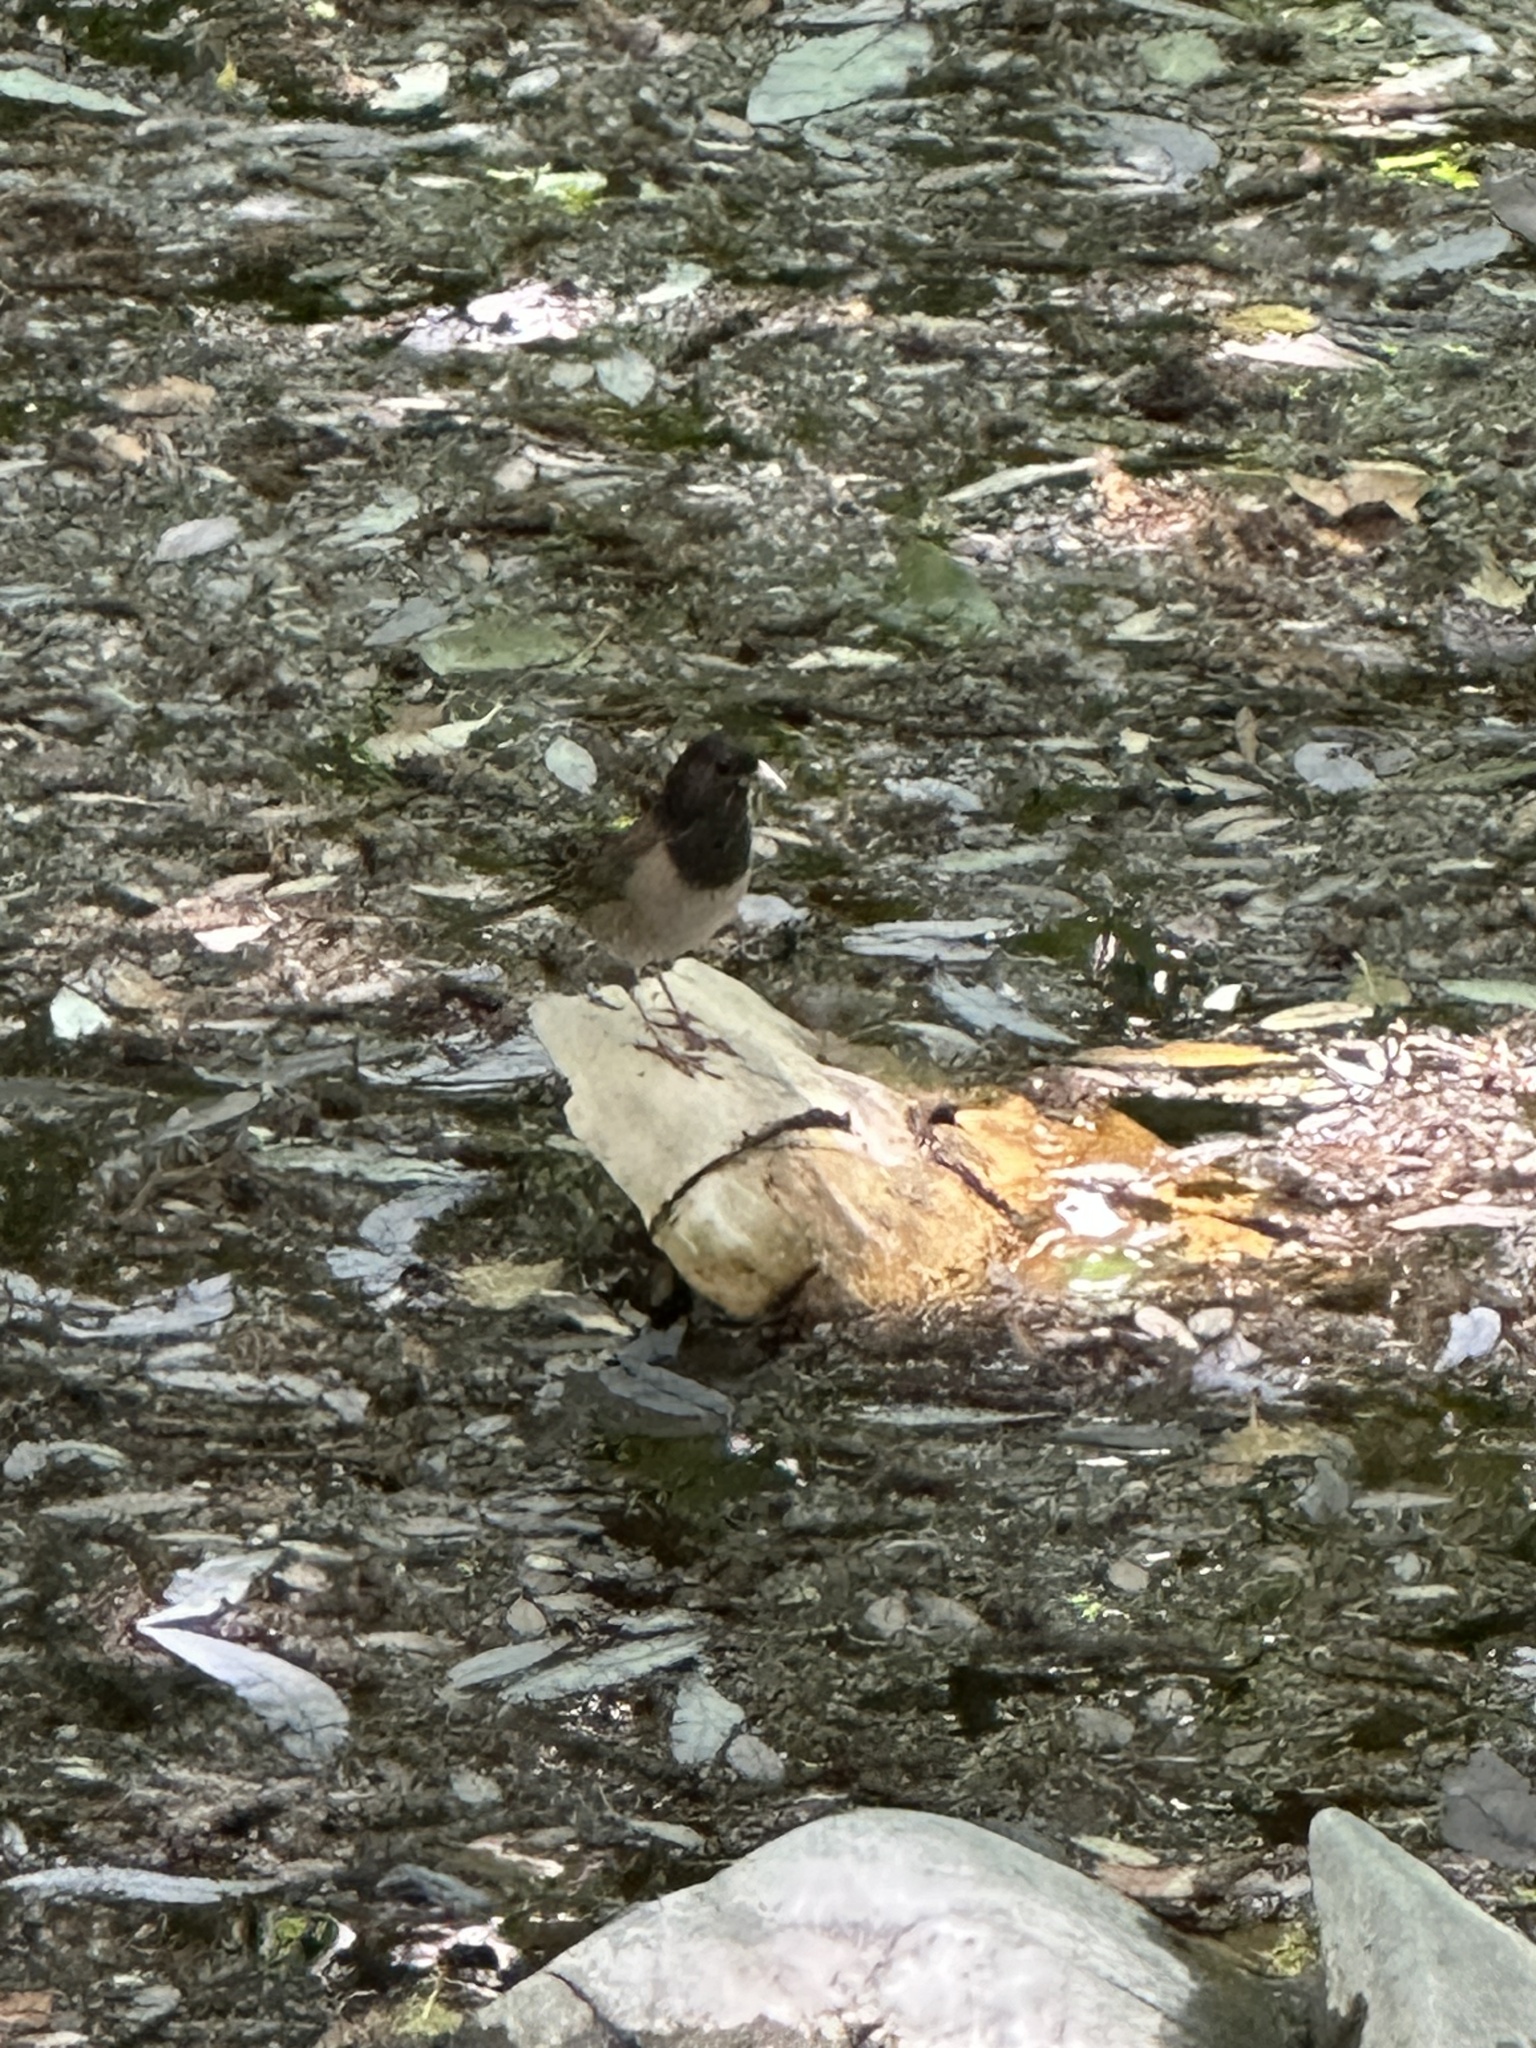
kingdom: Animalia
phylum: Chordata
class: Aves
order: Passeriformes
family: Passerellidae
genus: Junco
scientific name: Junco hyemalis
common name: Dark-eyed junco
